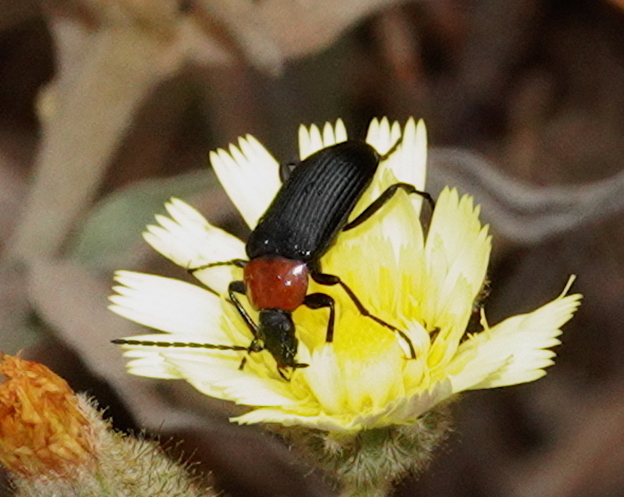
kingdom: Animalia
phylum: Arthropoda
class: Insecta
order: Coleoptera
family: Tenebrionidae
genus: Heliotaurus
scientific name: Heliotaurus ruficollis
